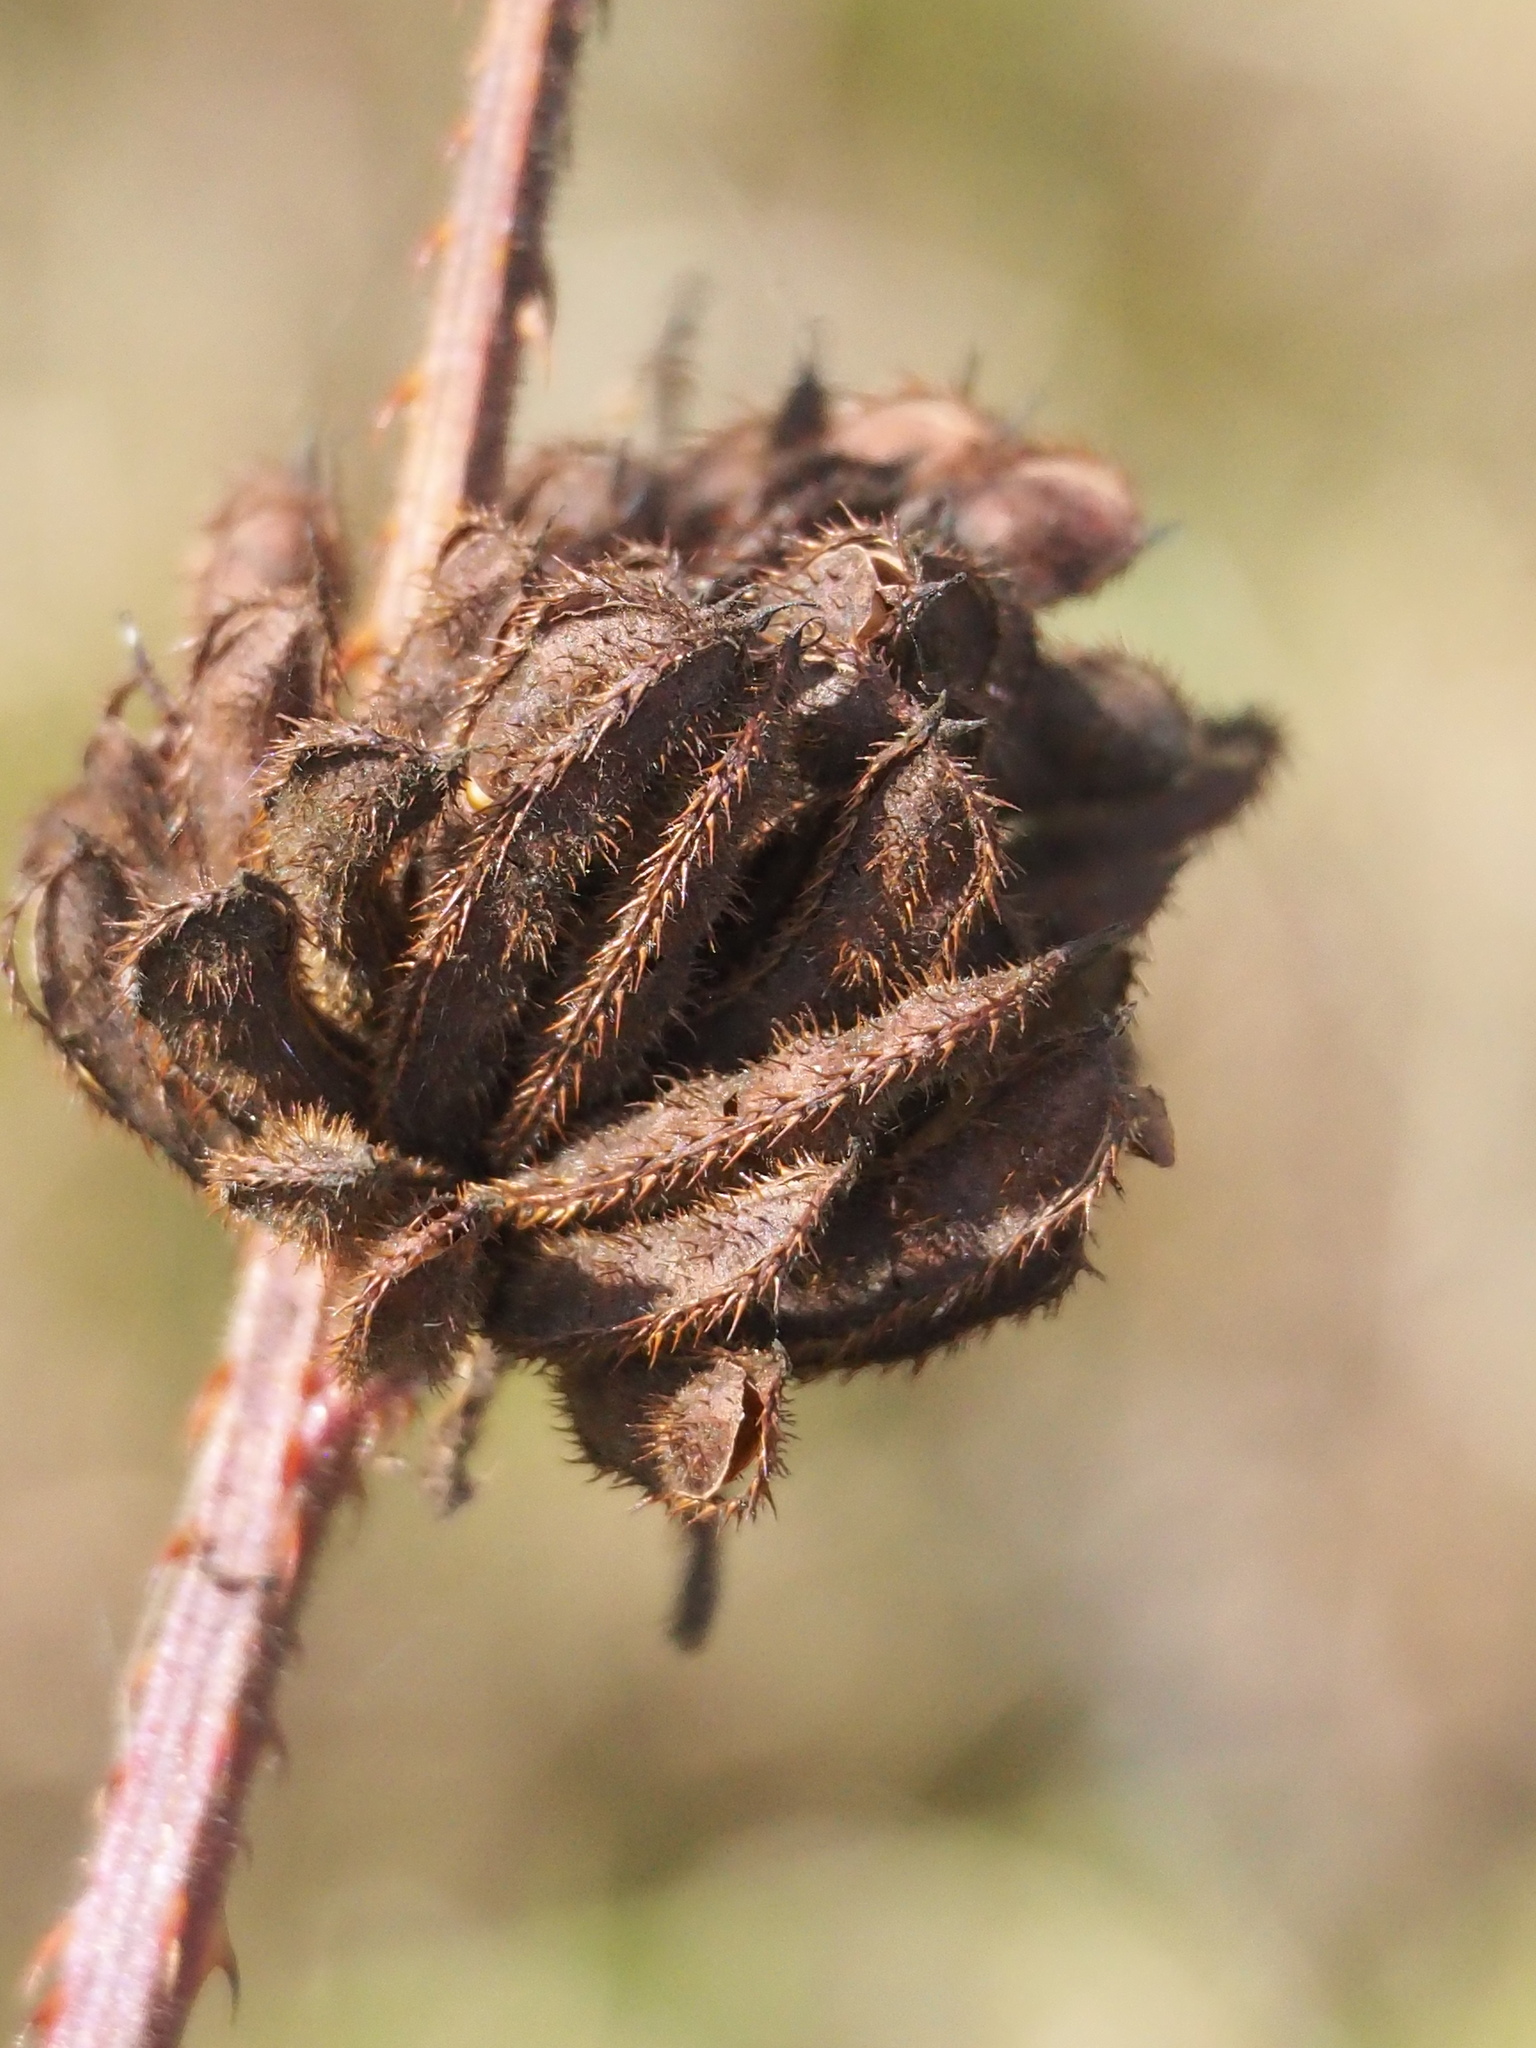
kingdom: Plantae
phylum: Tracheophyta
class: Magnoliopsida
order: Fabales
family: Fabaceae
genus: Mimosa
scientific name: Mimosa diplotricha
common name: Giant sensitive-plant
